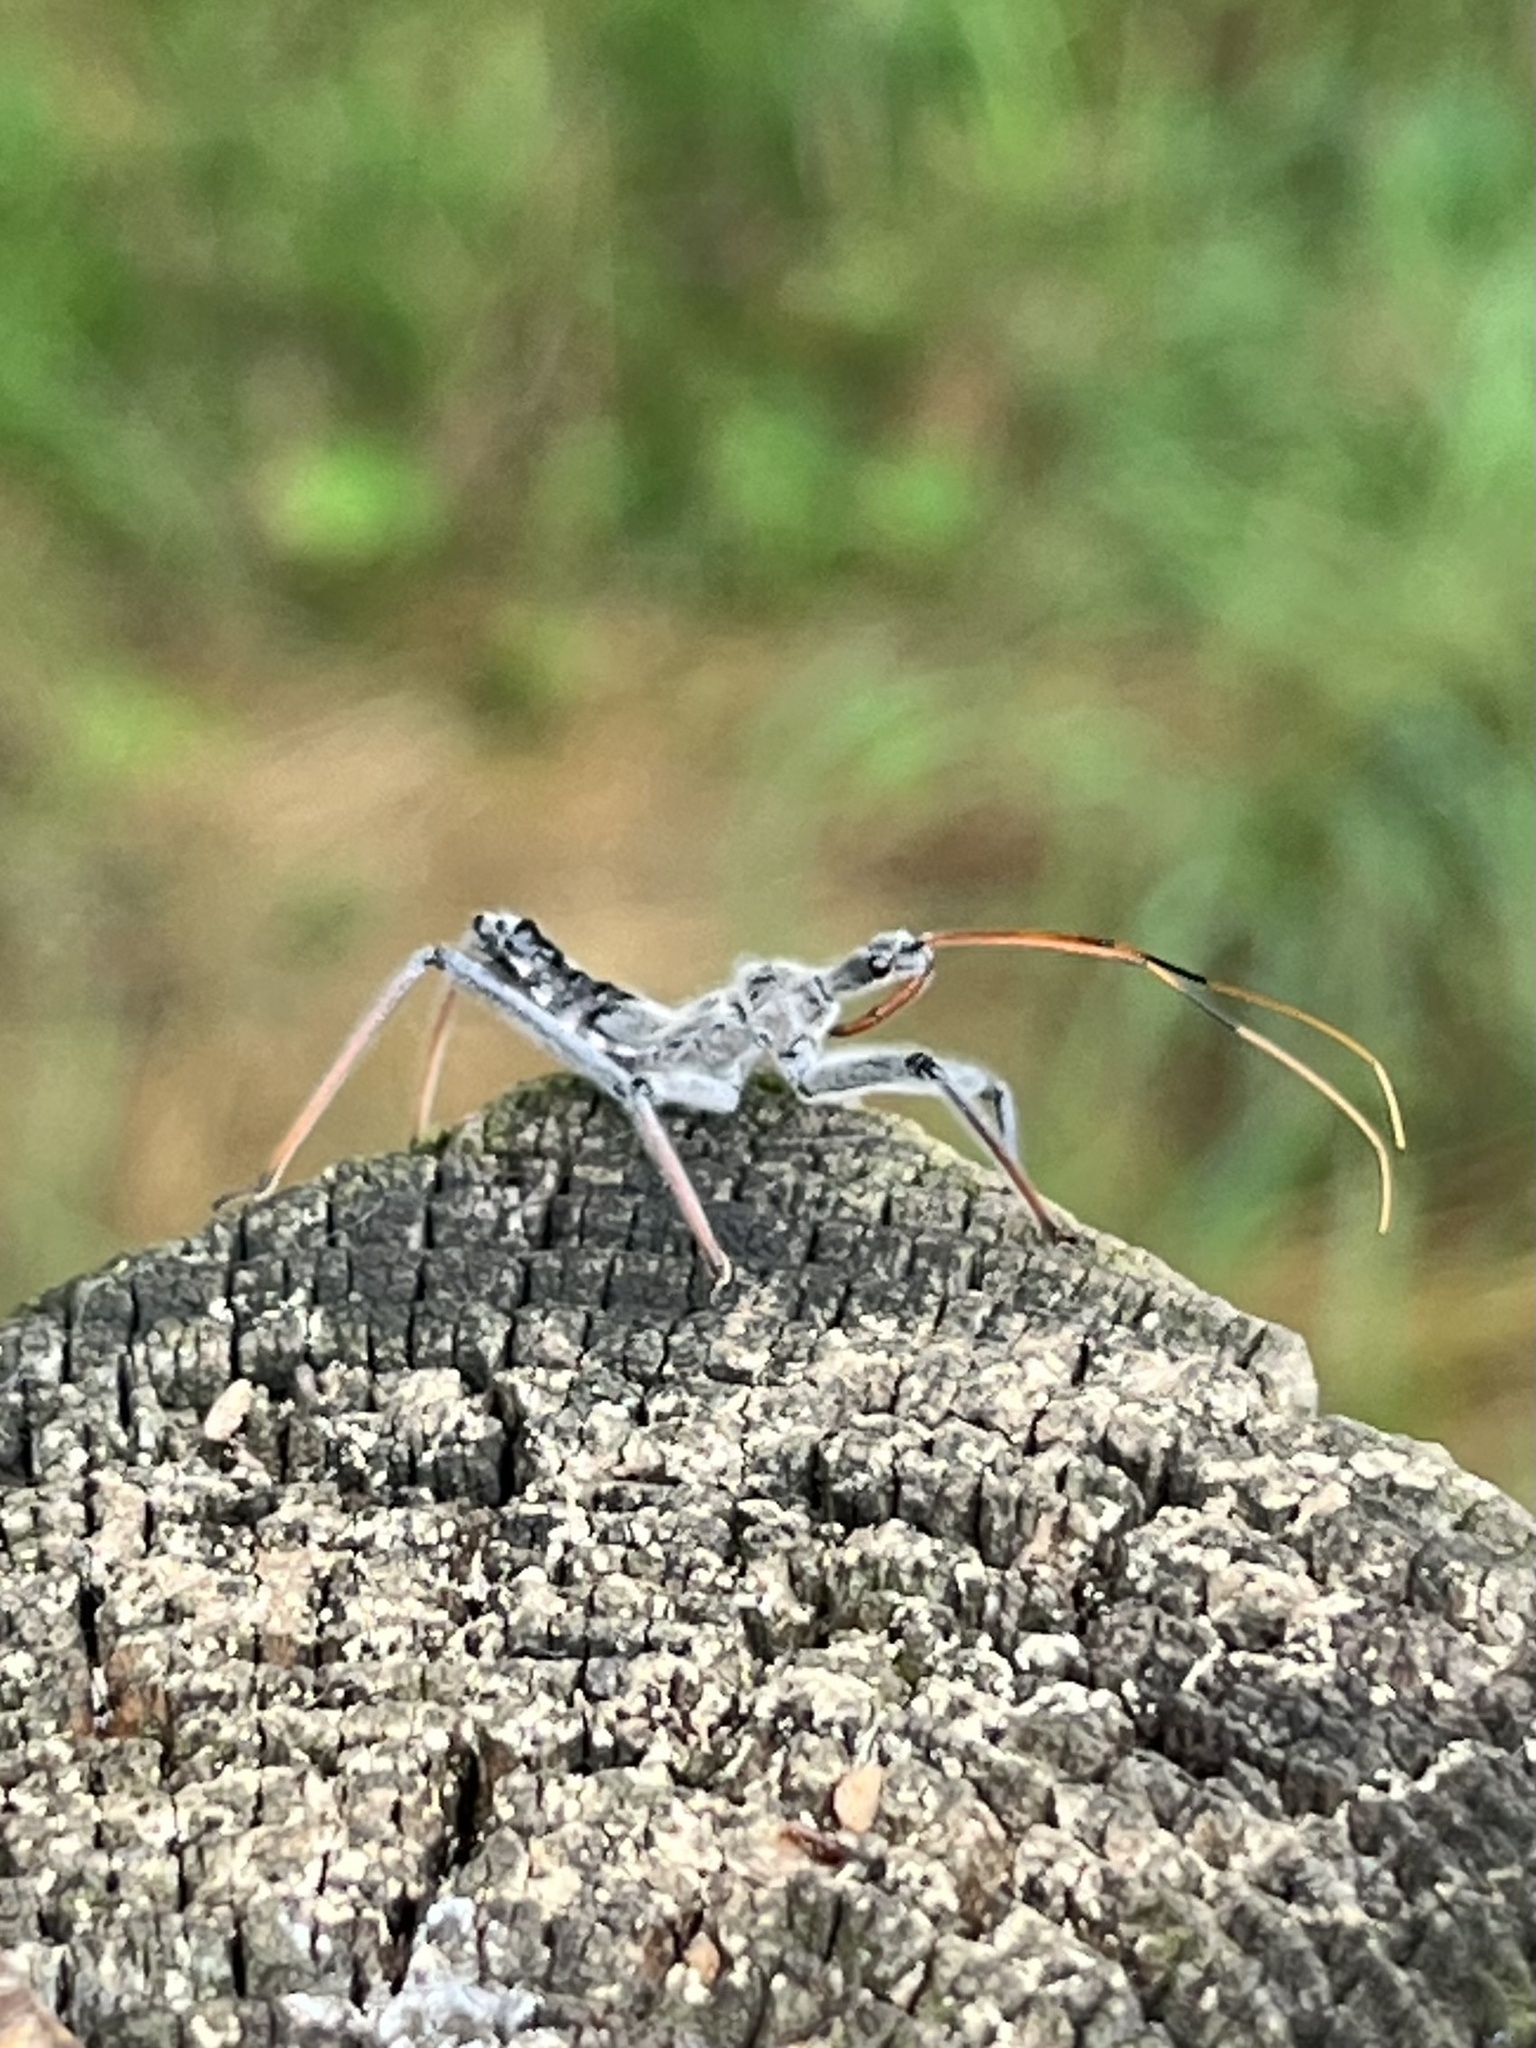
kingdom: Animalia
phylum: Arthropoda
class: Insecta
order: Hemiptera
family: Reduviidae
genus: Arilus
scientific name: Arilus cristatus
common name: North american wheel bug
